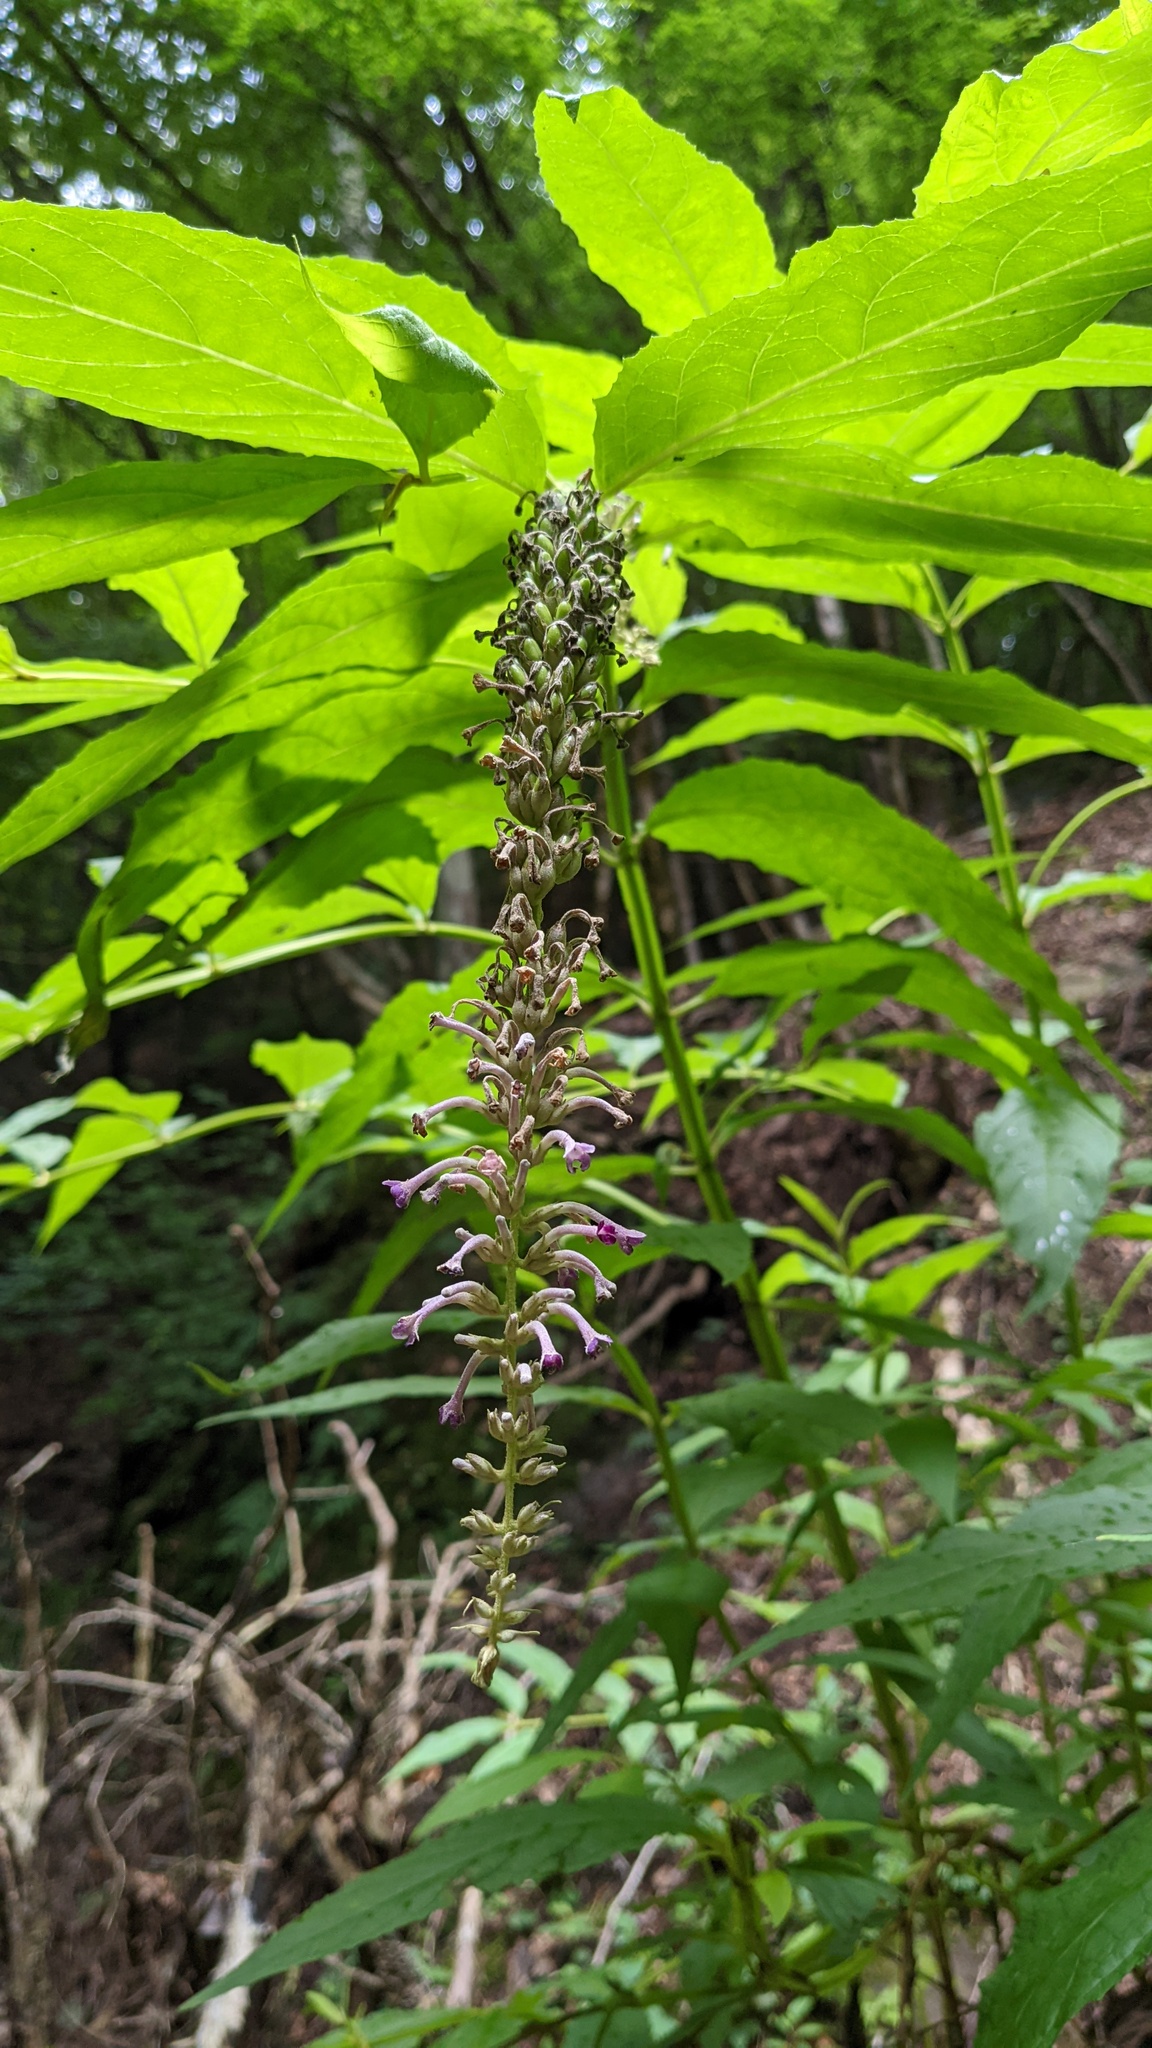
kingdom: Plantae
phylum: Tracheophyta
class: Magnoliopsida
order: Lamiales
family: Scrophulariaceae
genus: Buddleja
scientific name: Buddleja japonica
